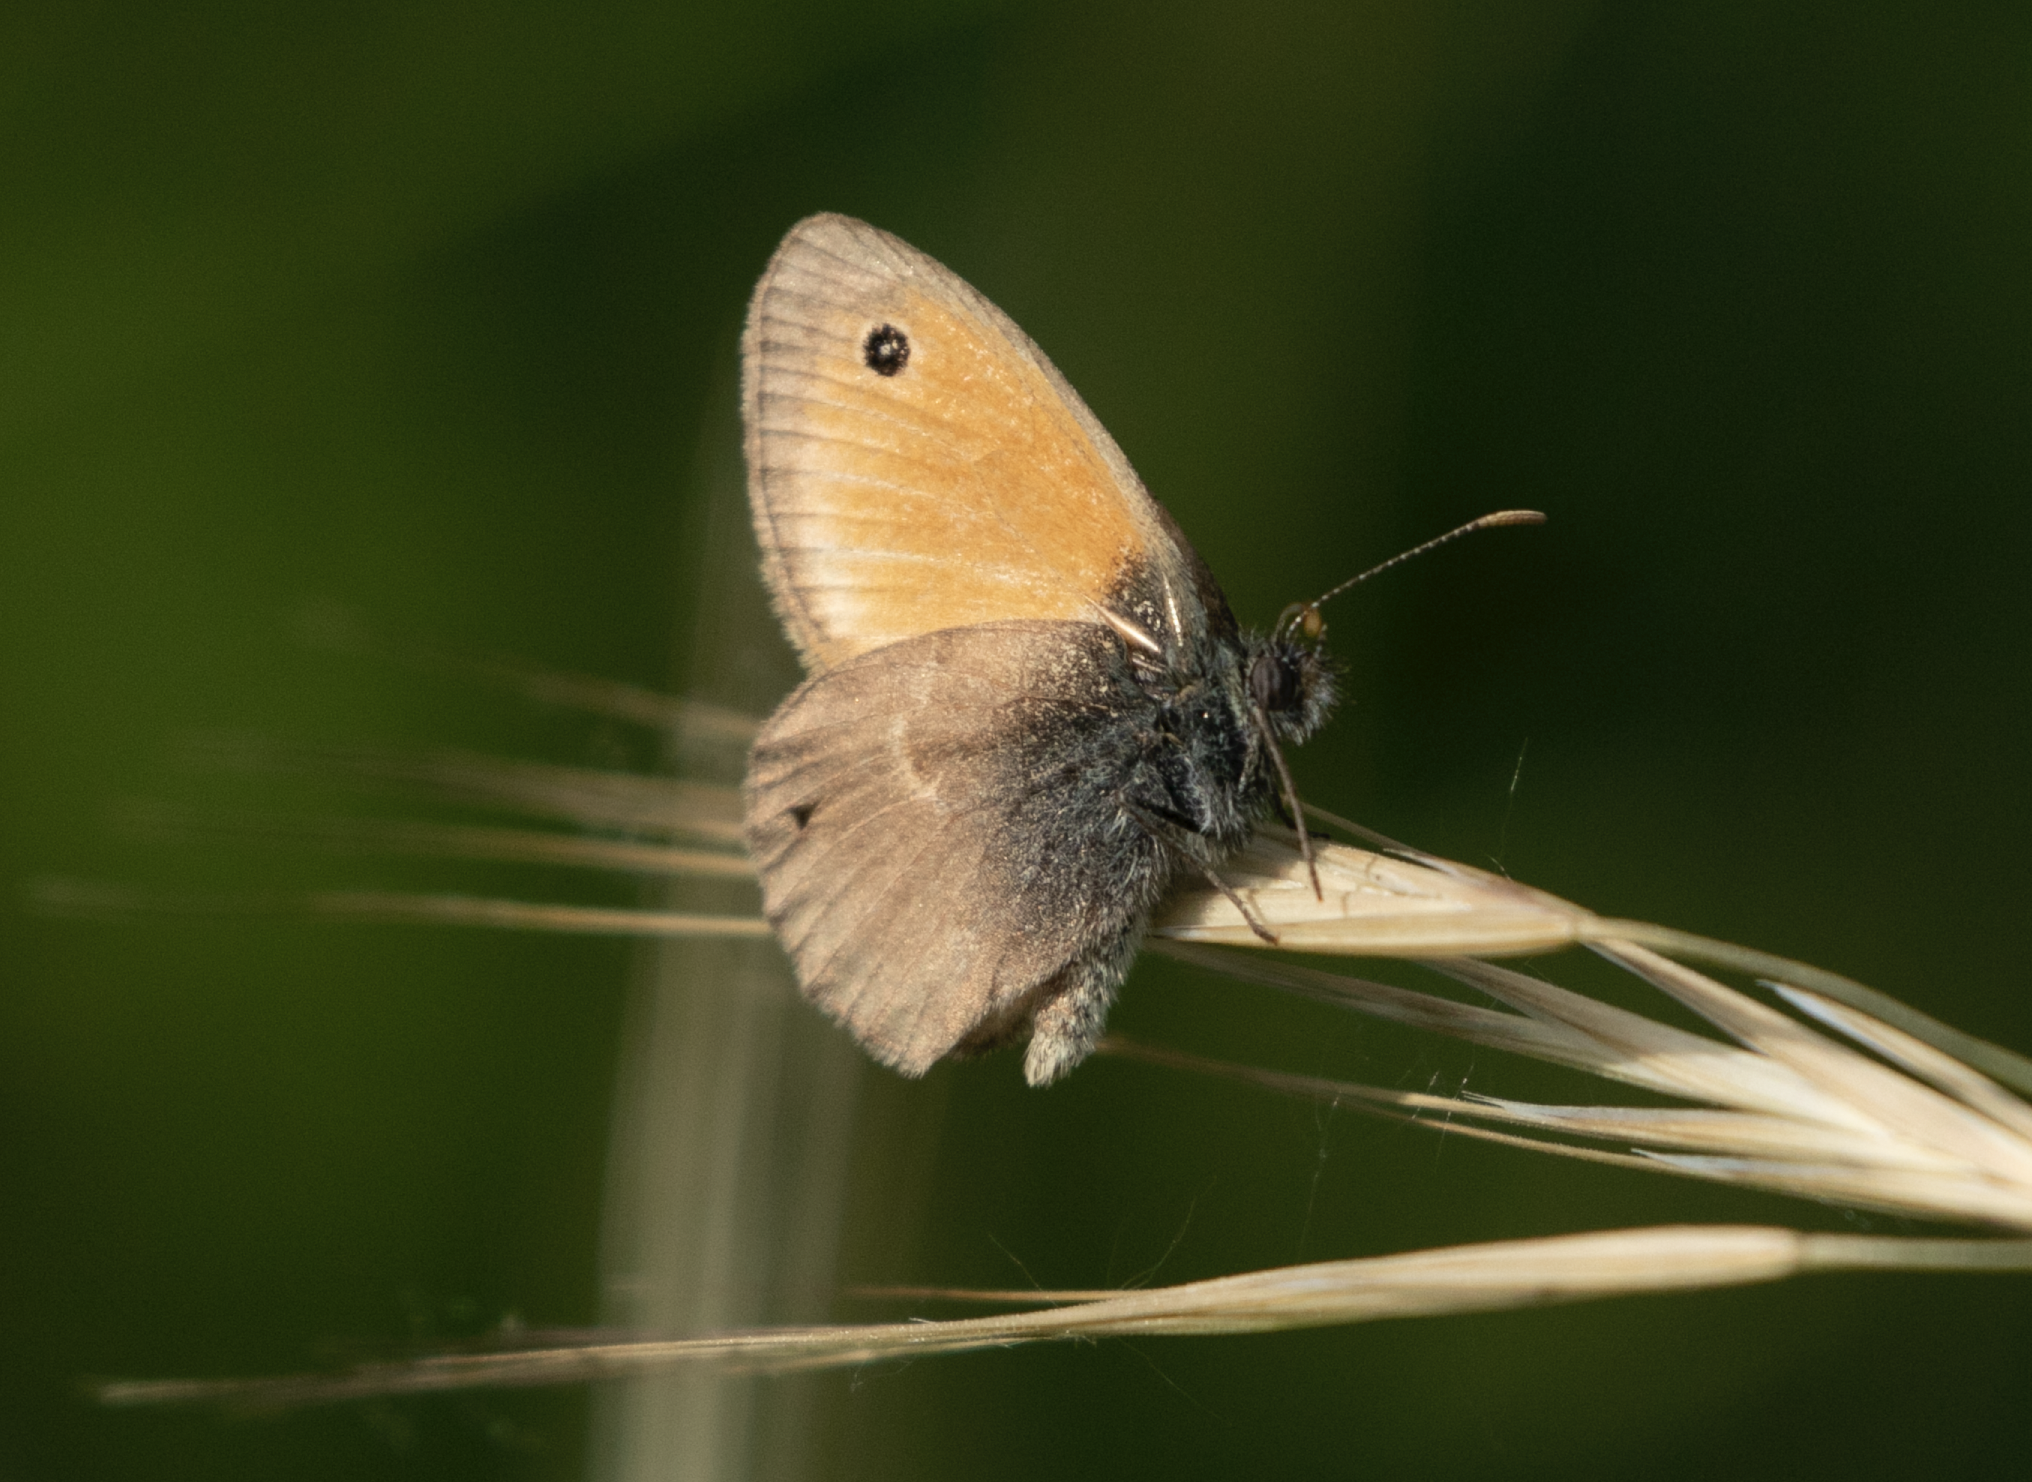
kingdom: Animalia
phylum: Arthropoda
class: Insecta
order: Lepidoptera
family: Nymphalidae
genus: Coenonympha
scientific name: Coenonympha pamphilus
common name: Small heath
